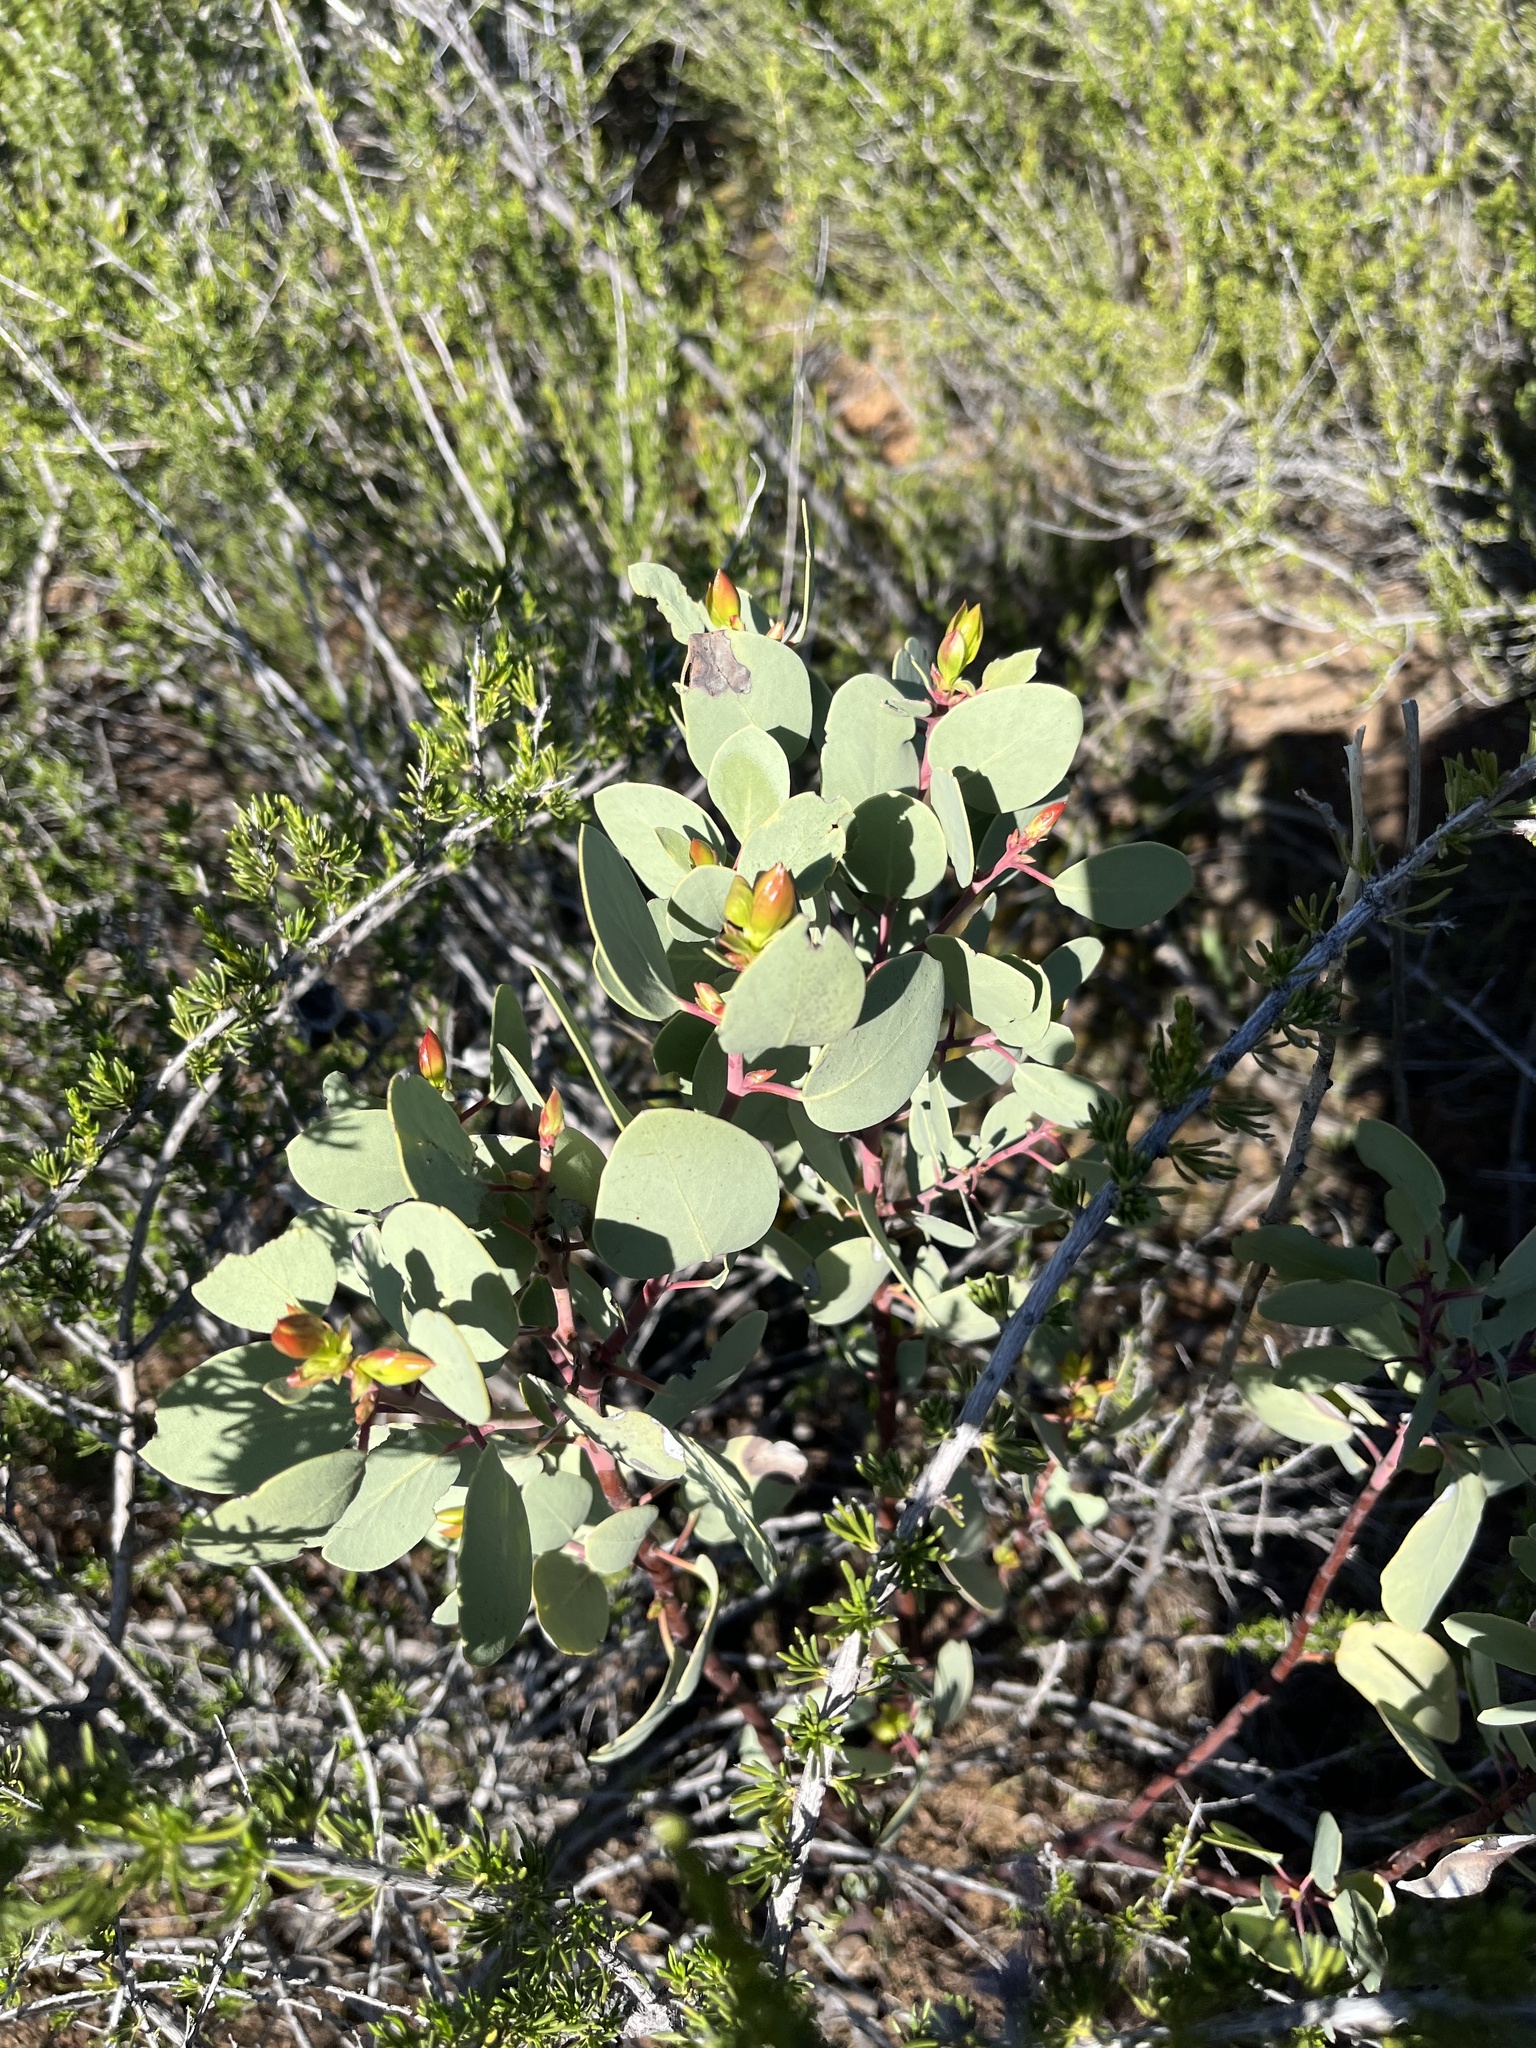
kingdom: Plantae
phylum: Tracheophyta
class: Magnoliopsida
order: Ericales
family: Ericaceae
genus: Arctostaphylos
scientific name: Arctostaphylos viscida
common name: White-leaf manzanita
